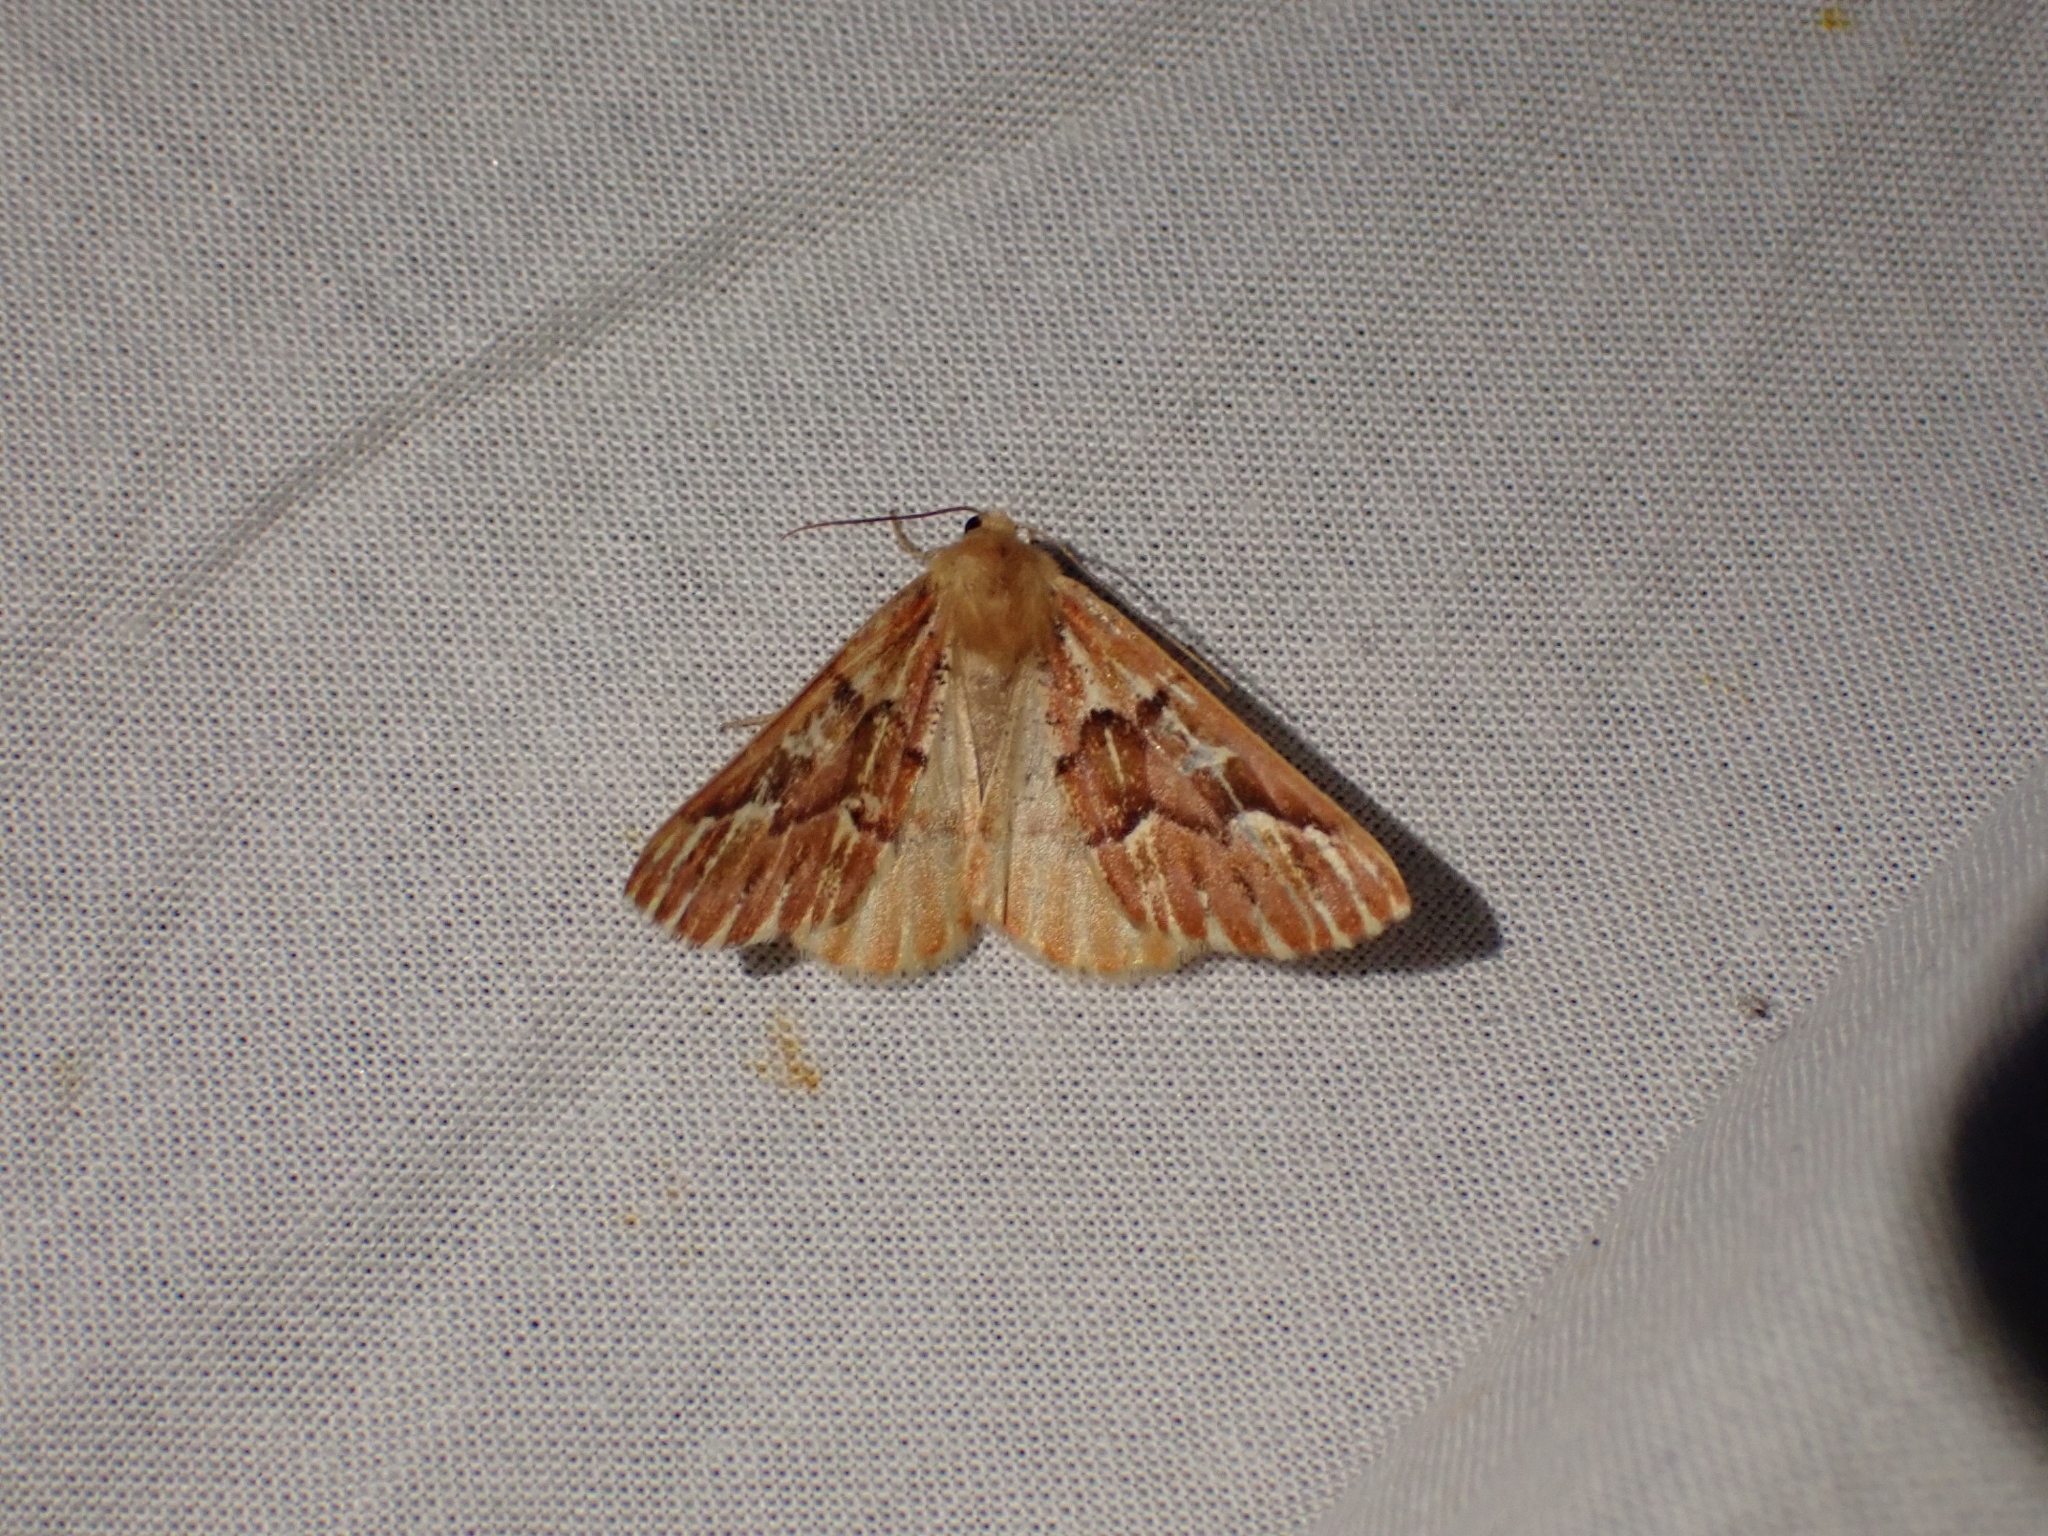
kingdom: Animalia
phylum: Arthropoda
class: Insecta
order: Lepidoptera
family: Geometridae
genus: Caripeta
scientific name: Caripeta aequaliaria
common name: Red girdle moth
